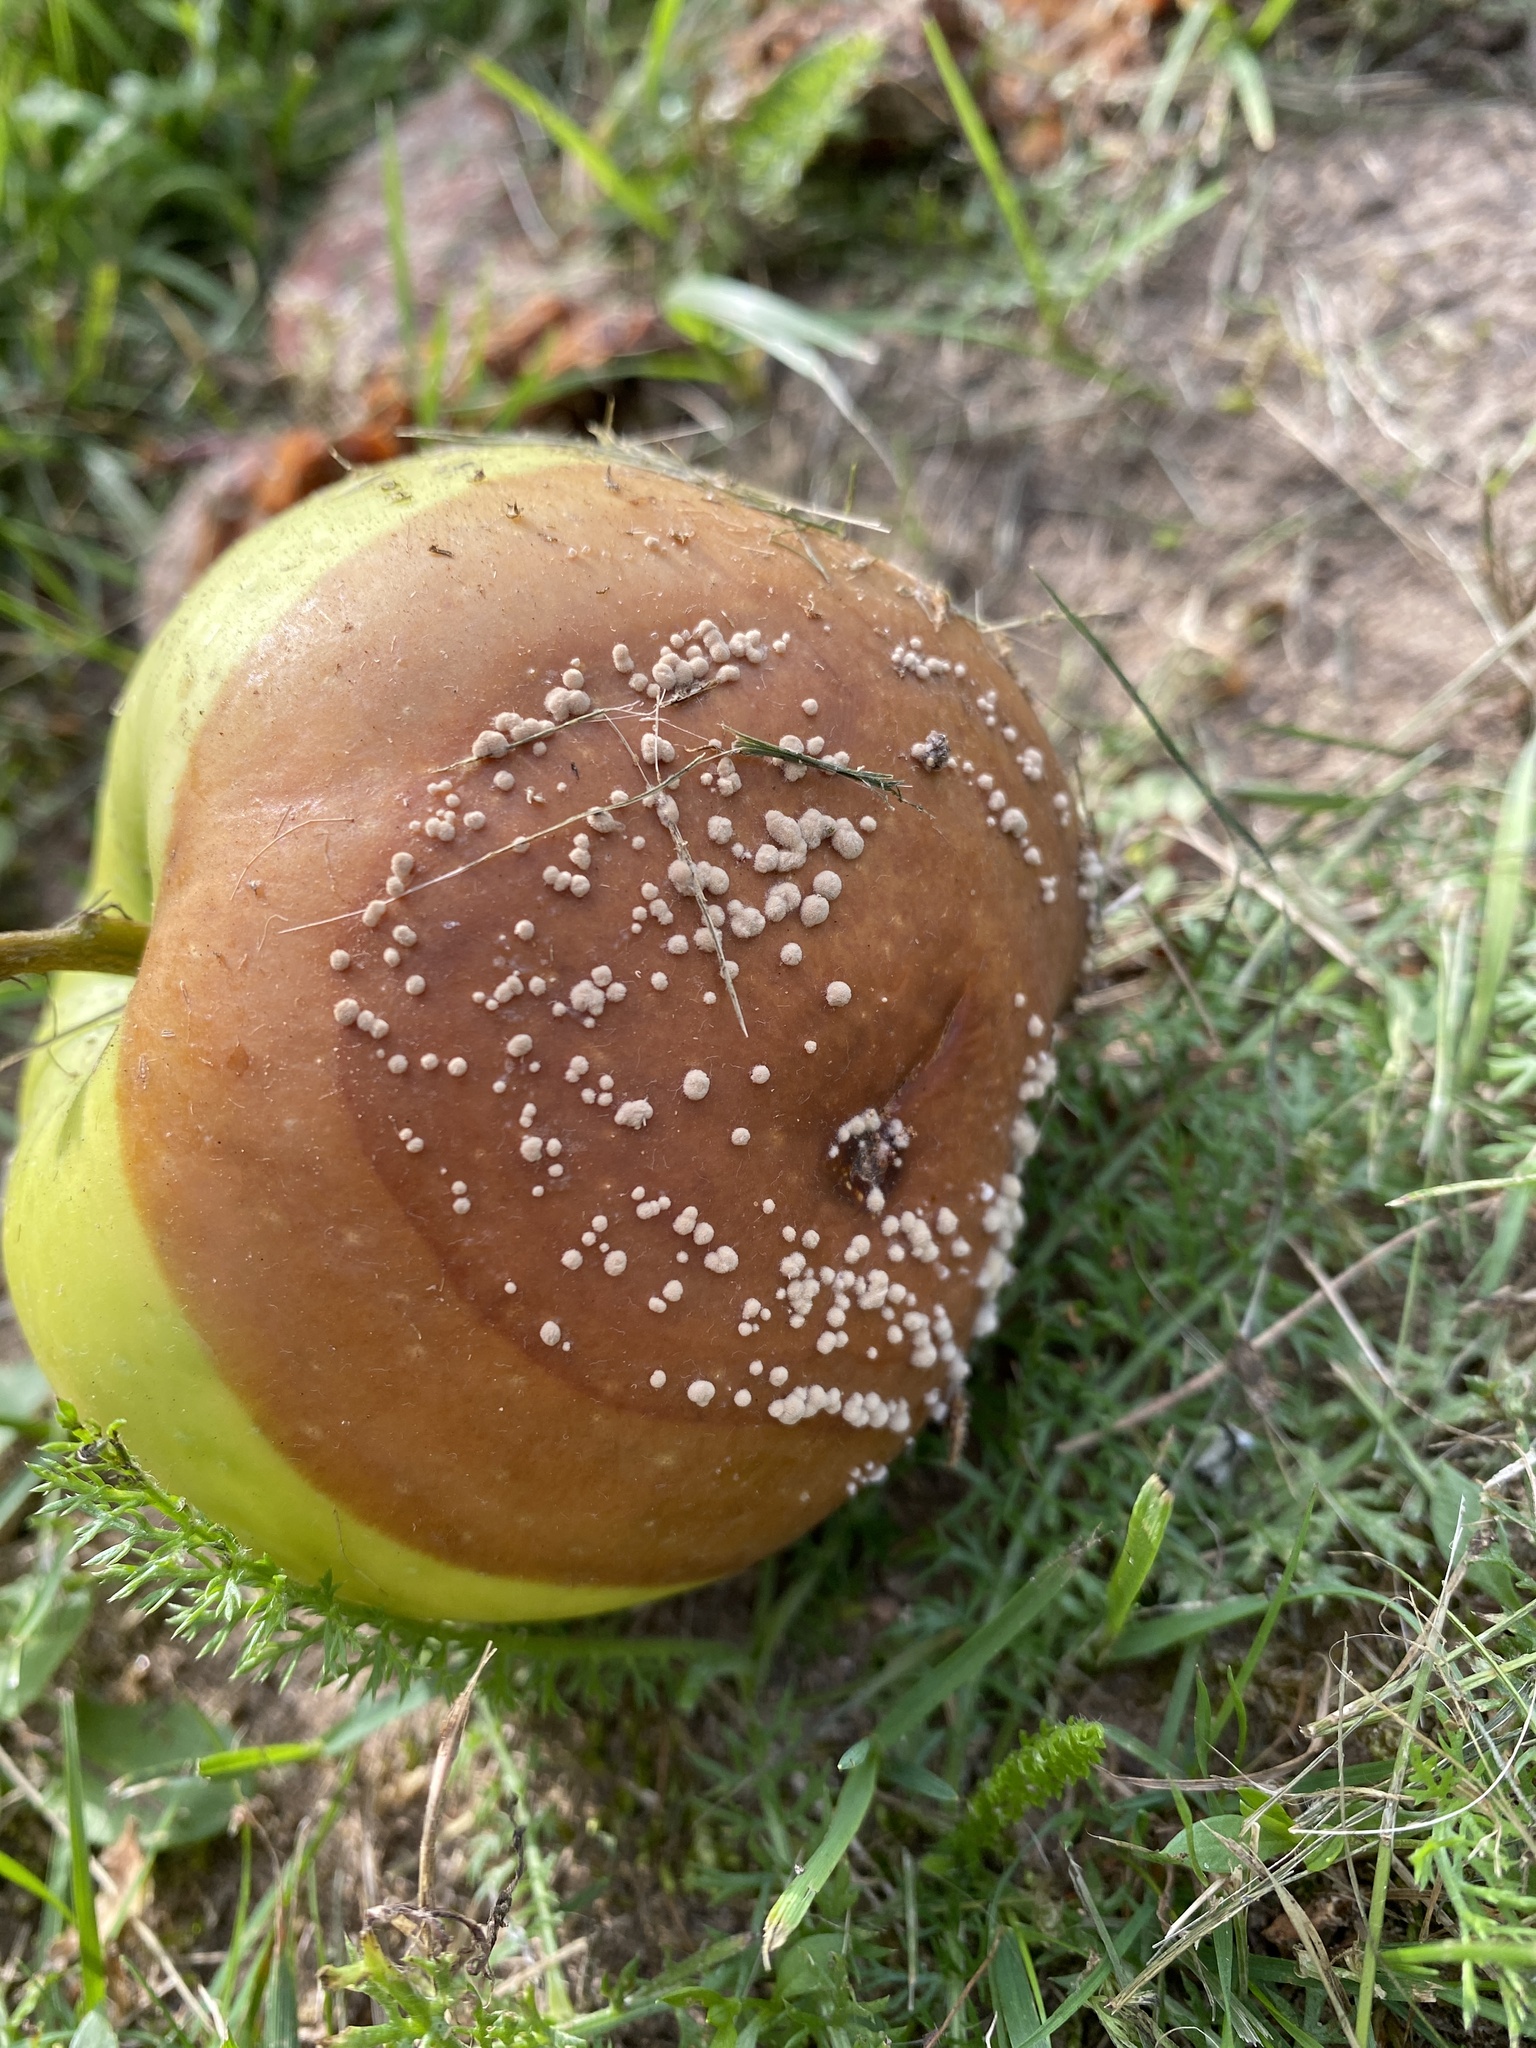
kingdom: Fungi
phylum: Ascomycota
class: Leotiomycetes
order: Helotiales
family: Sclerotiniaceae
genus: Monilinia
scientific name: Monilinia fructigena
